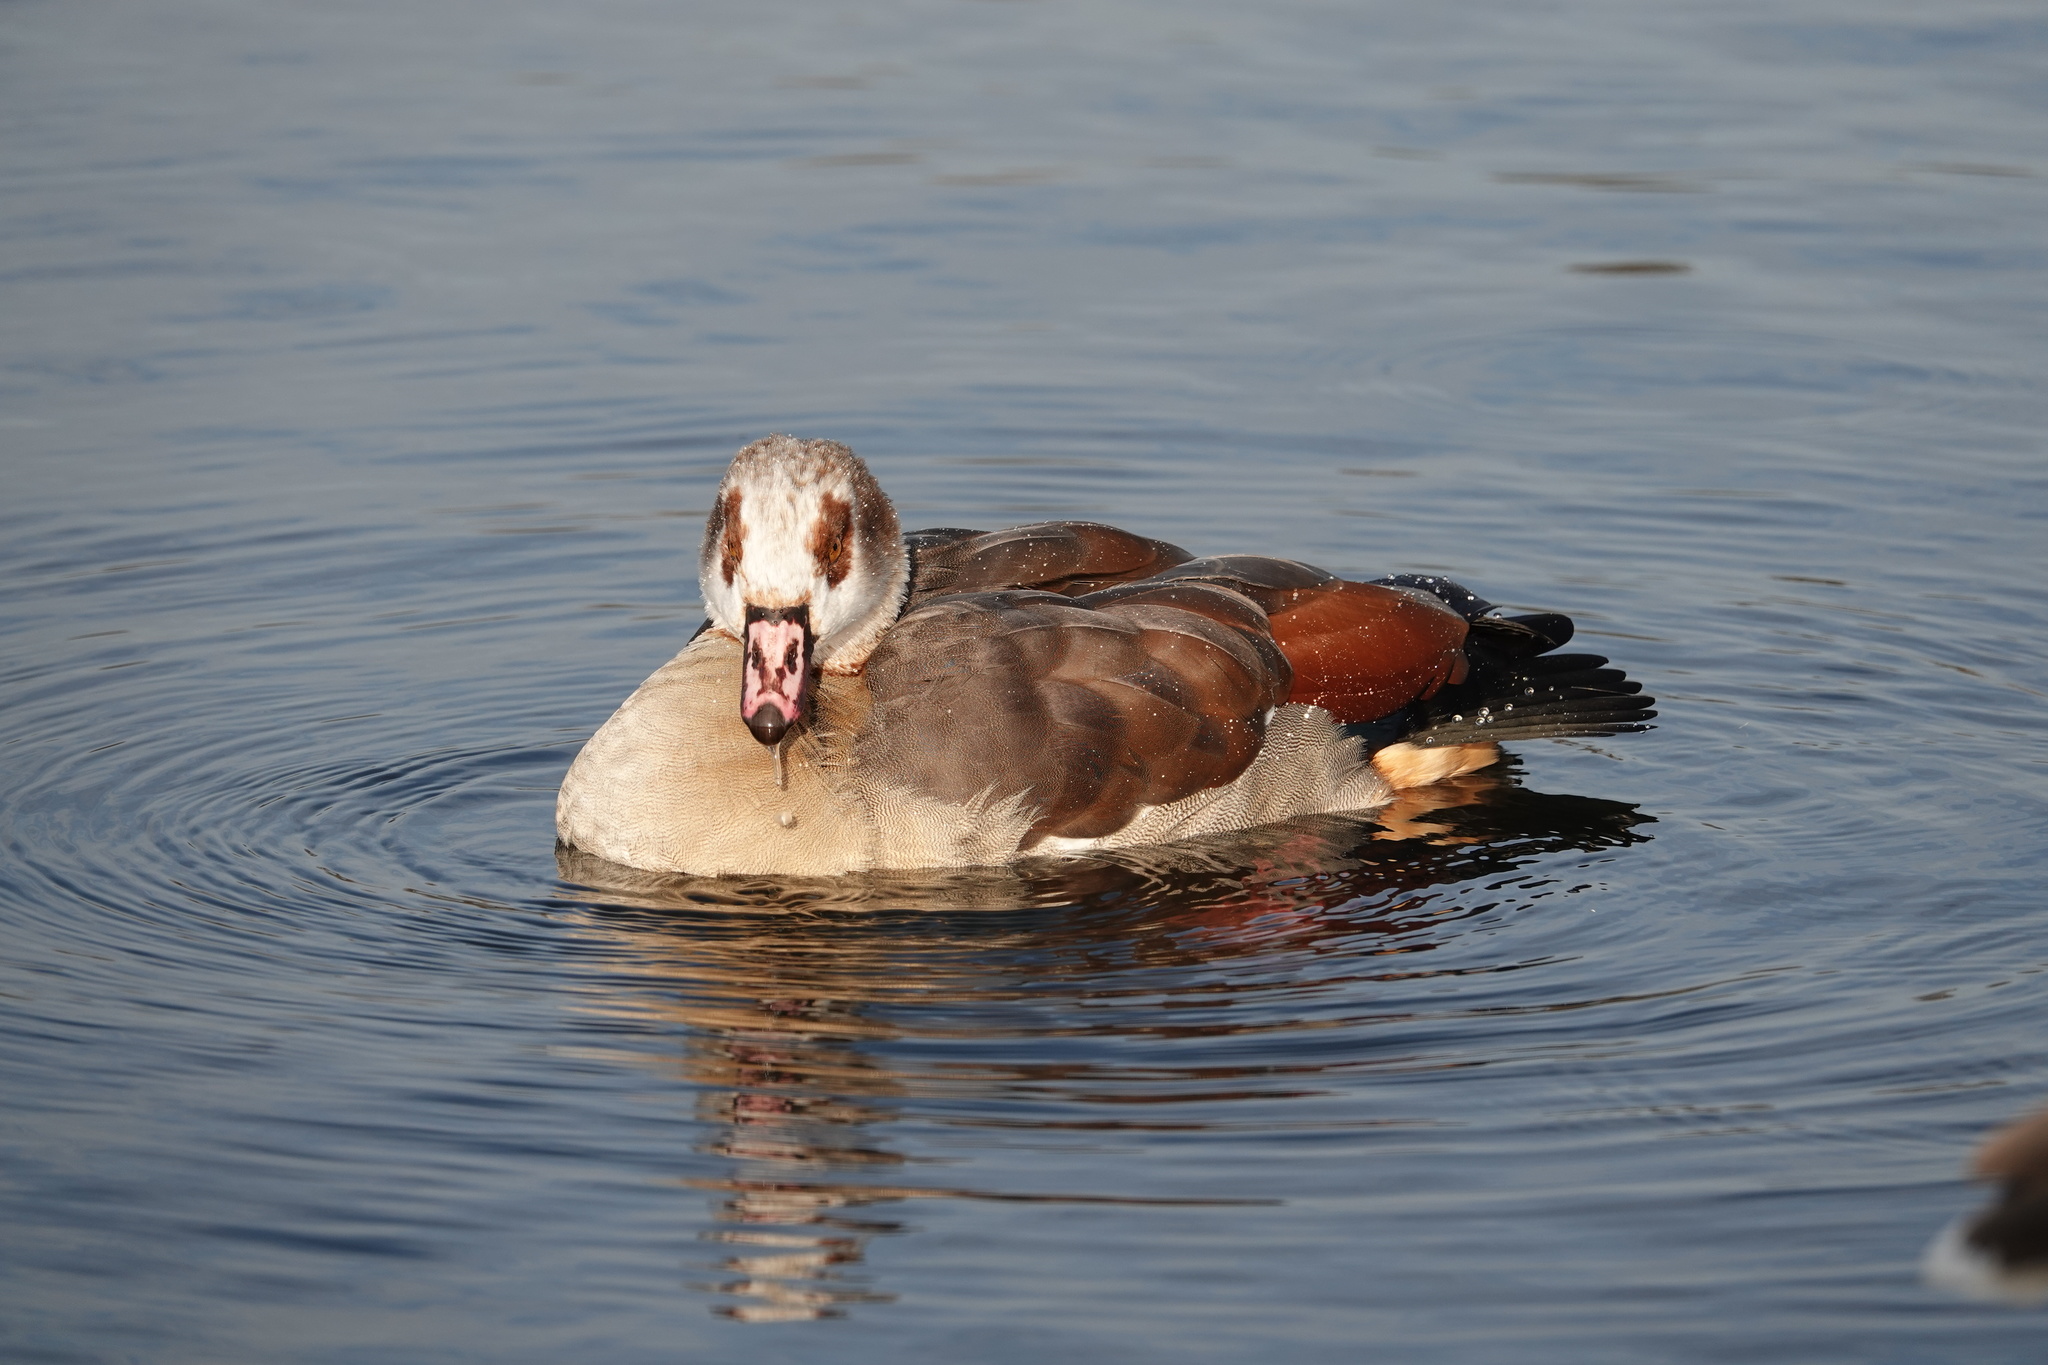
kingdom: Animalia
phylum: Chordata
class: Aves
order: Anseriformes
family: Anatidae
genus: Alopochen
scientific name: Alopochen aegyptiaca
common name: Egyptian goose
